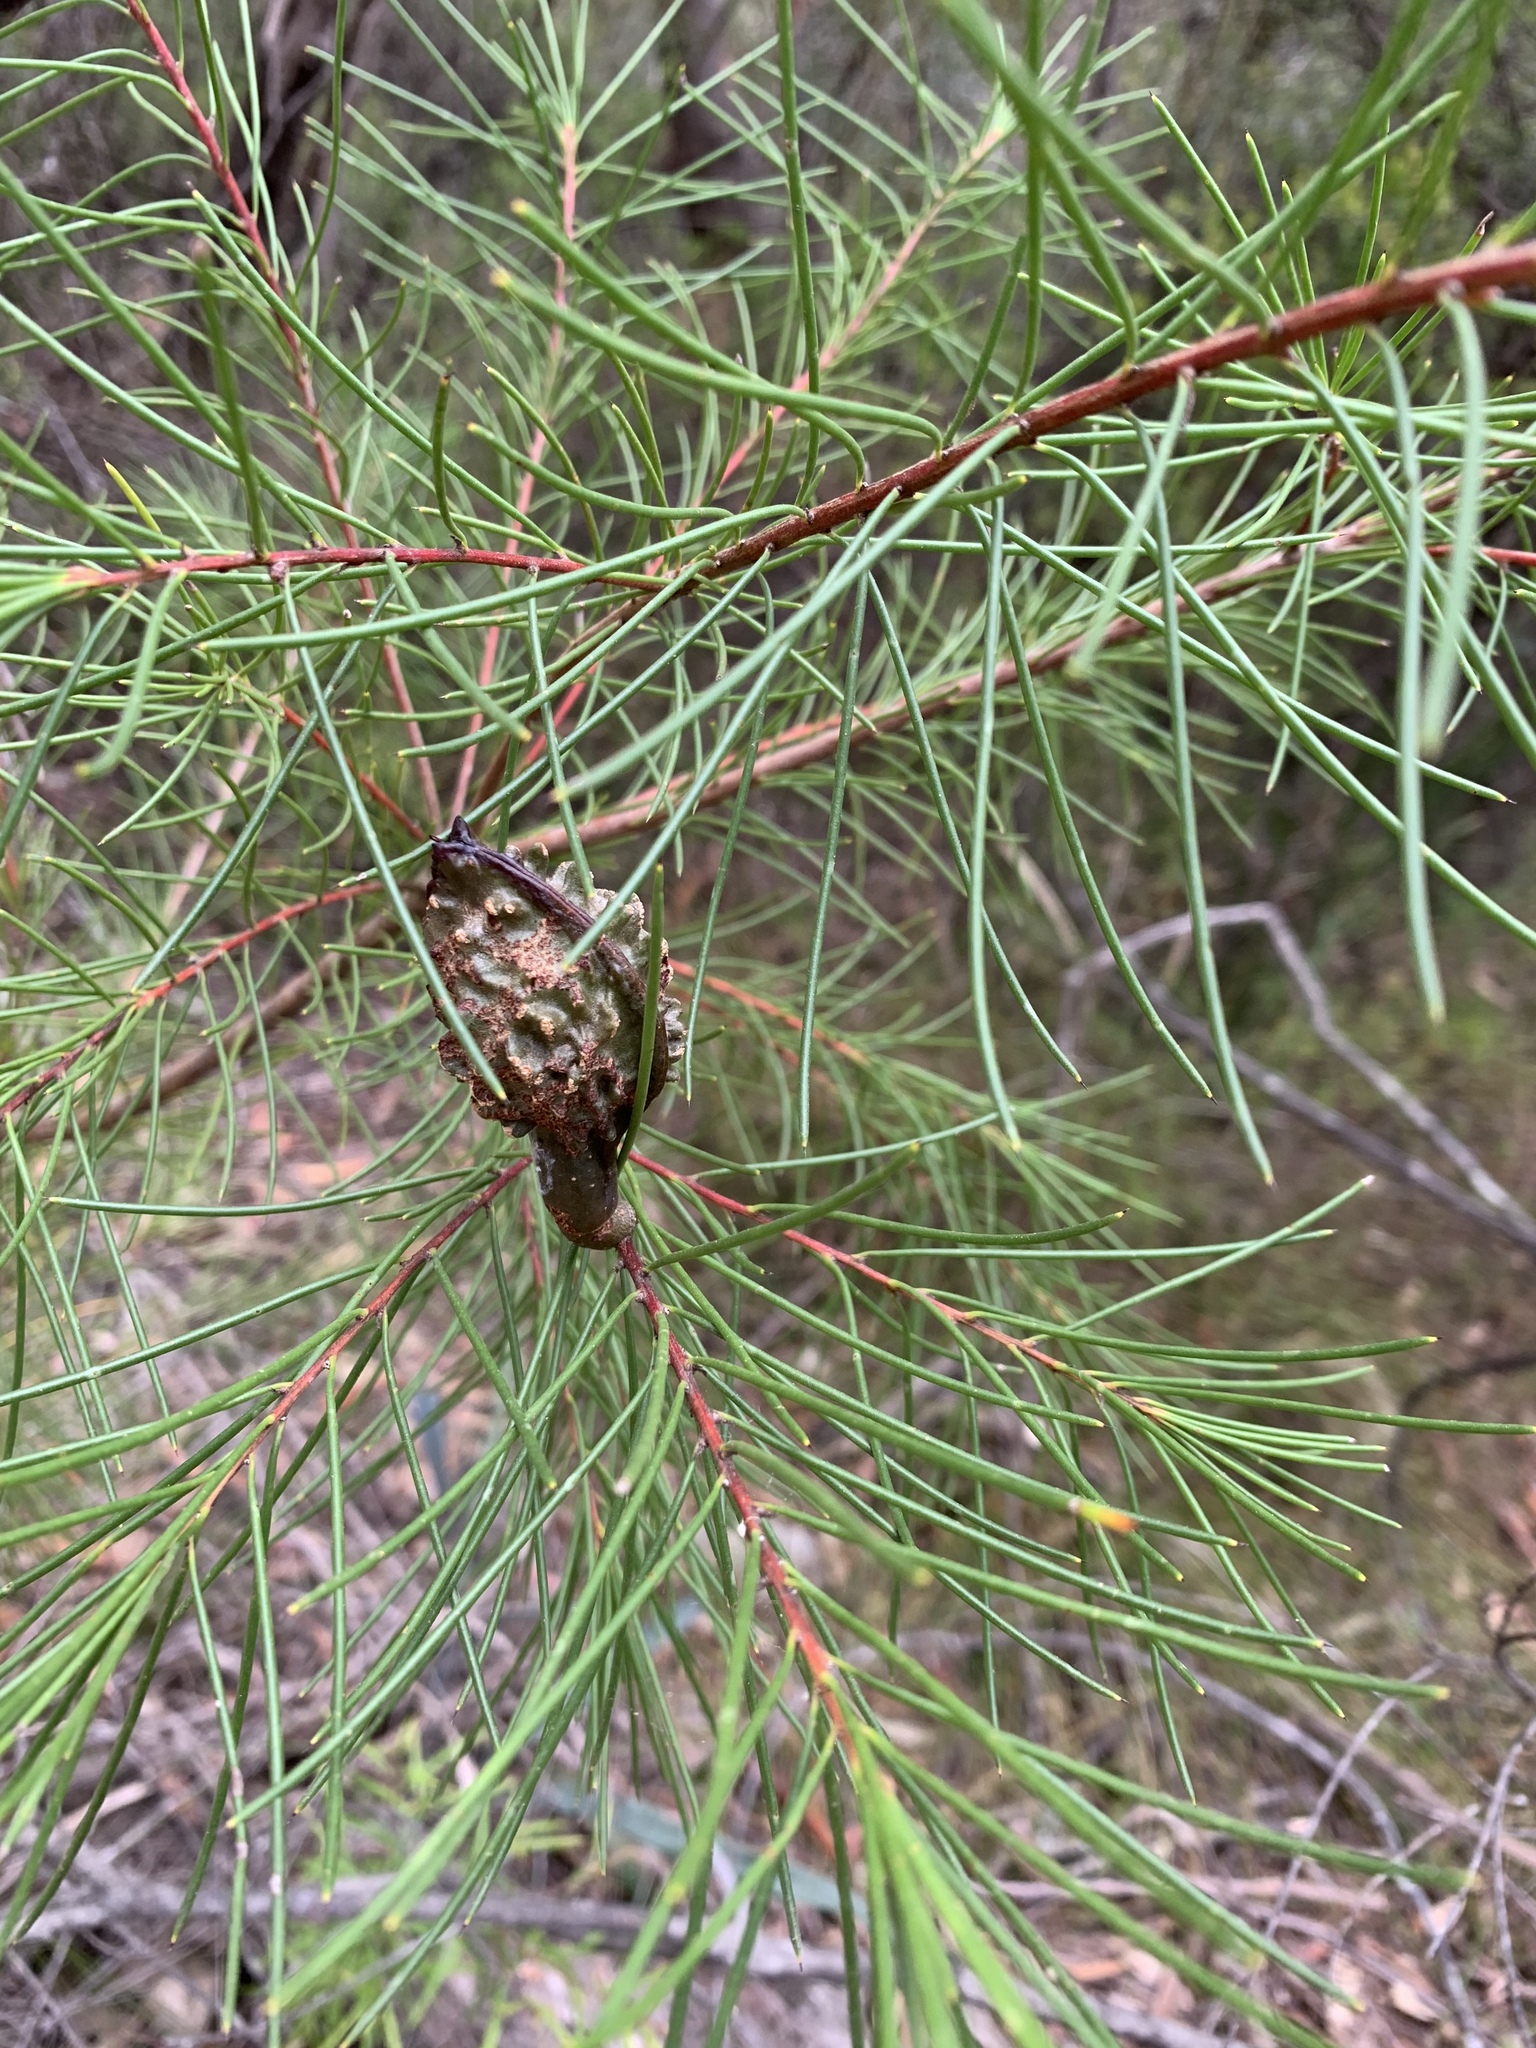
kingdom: Plantae
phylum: Tracheophyta
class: Magnoliopsida
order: Proteales
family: Proteaceae
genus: Hakea
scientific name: Hakea sericea
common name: Needle bush
